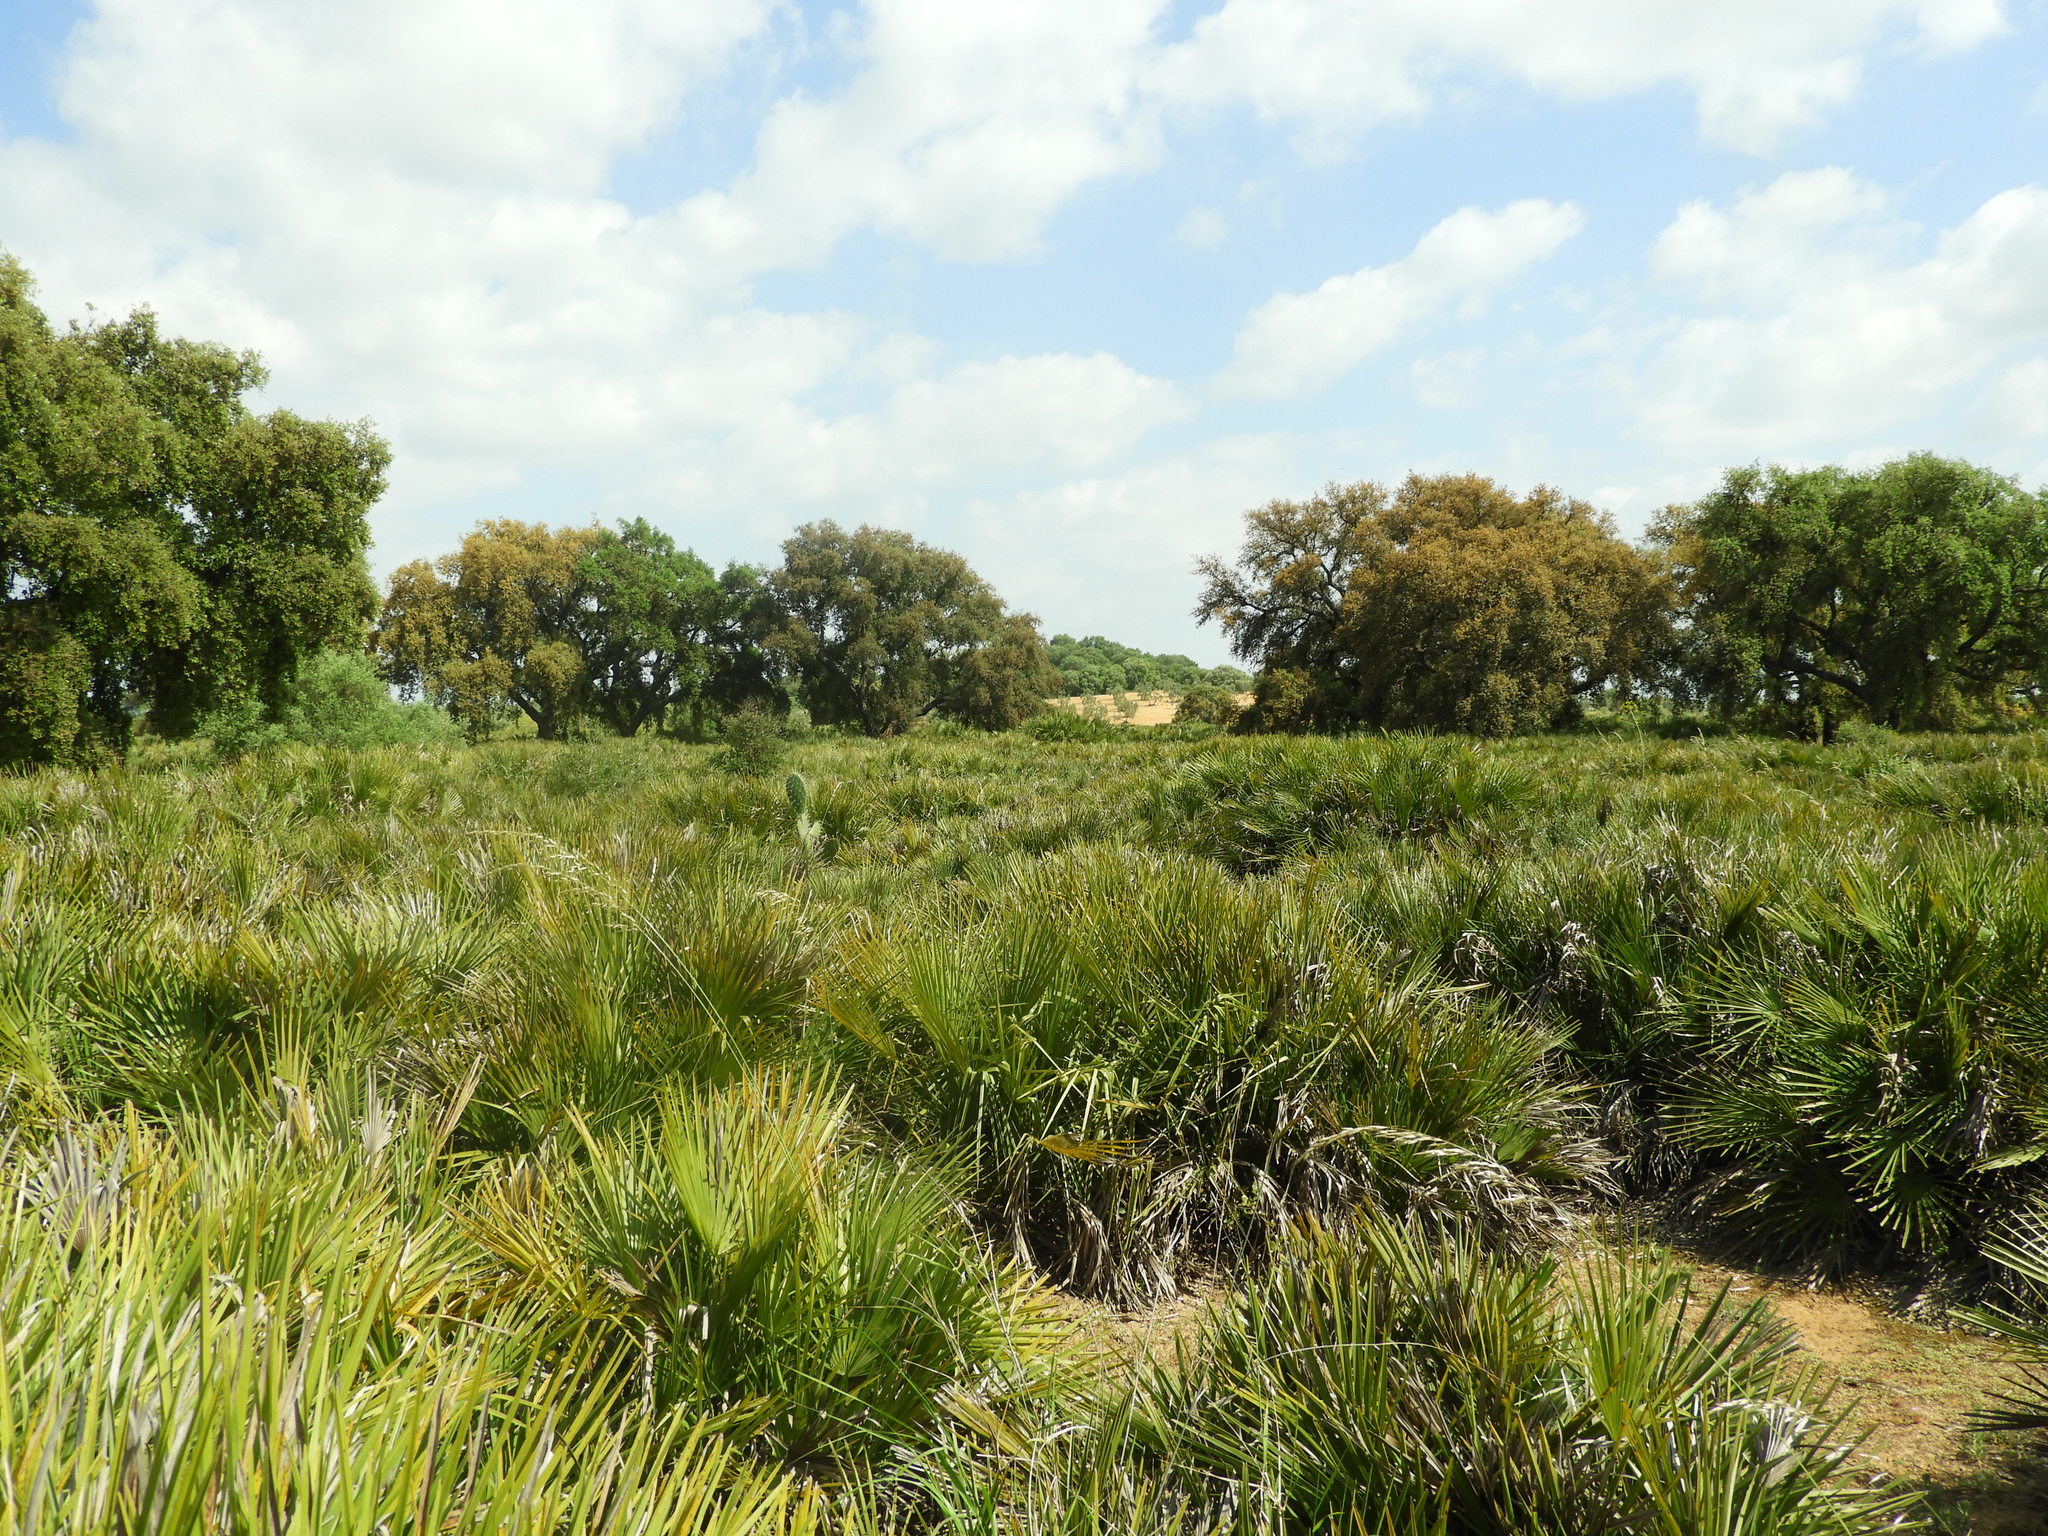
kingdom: Plantae
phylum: Tracheophyta
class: Liliopsida
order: Arecales
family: Arecaceae
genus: Chamaerops
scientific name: Chamaerops humilis
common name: Dwarf fan palm
